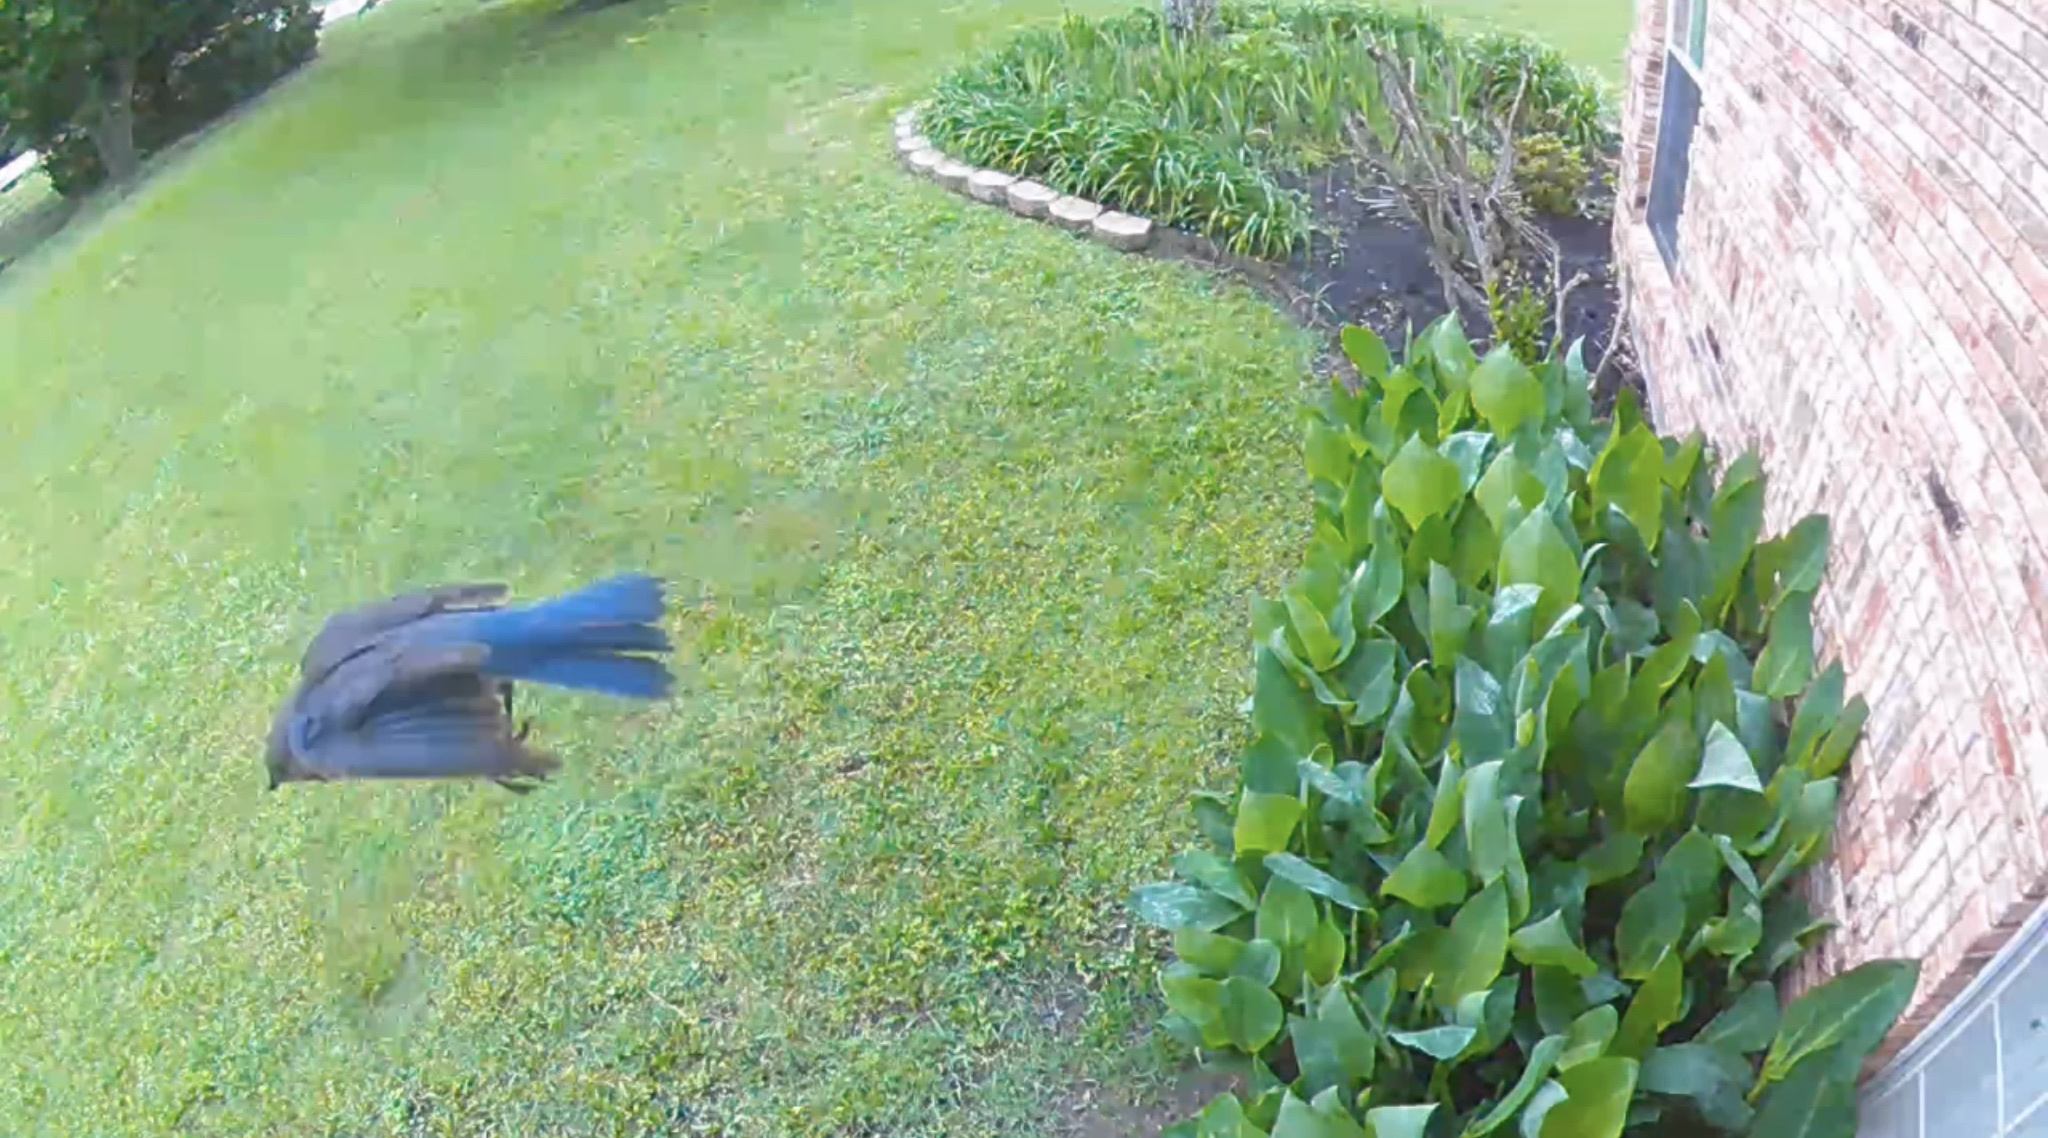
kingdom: Animalia
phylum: Chordata
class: Aves
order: Passeriformes
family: Turdidae
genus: Sialia
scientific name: Sialia sialis
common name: Eastern bluebird
